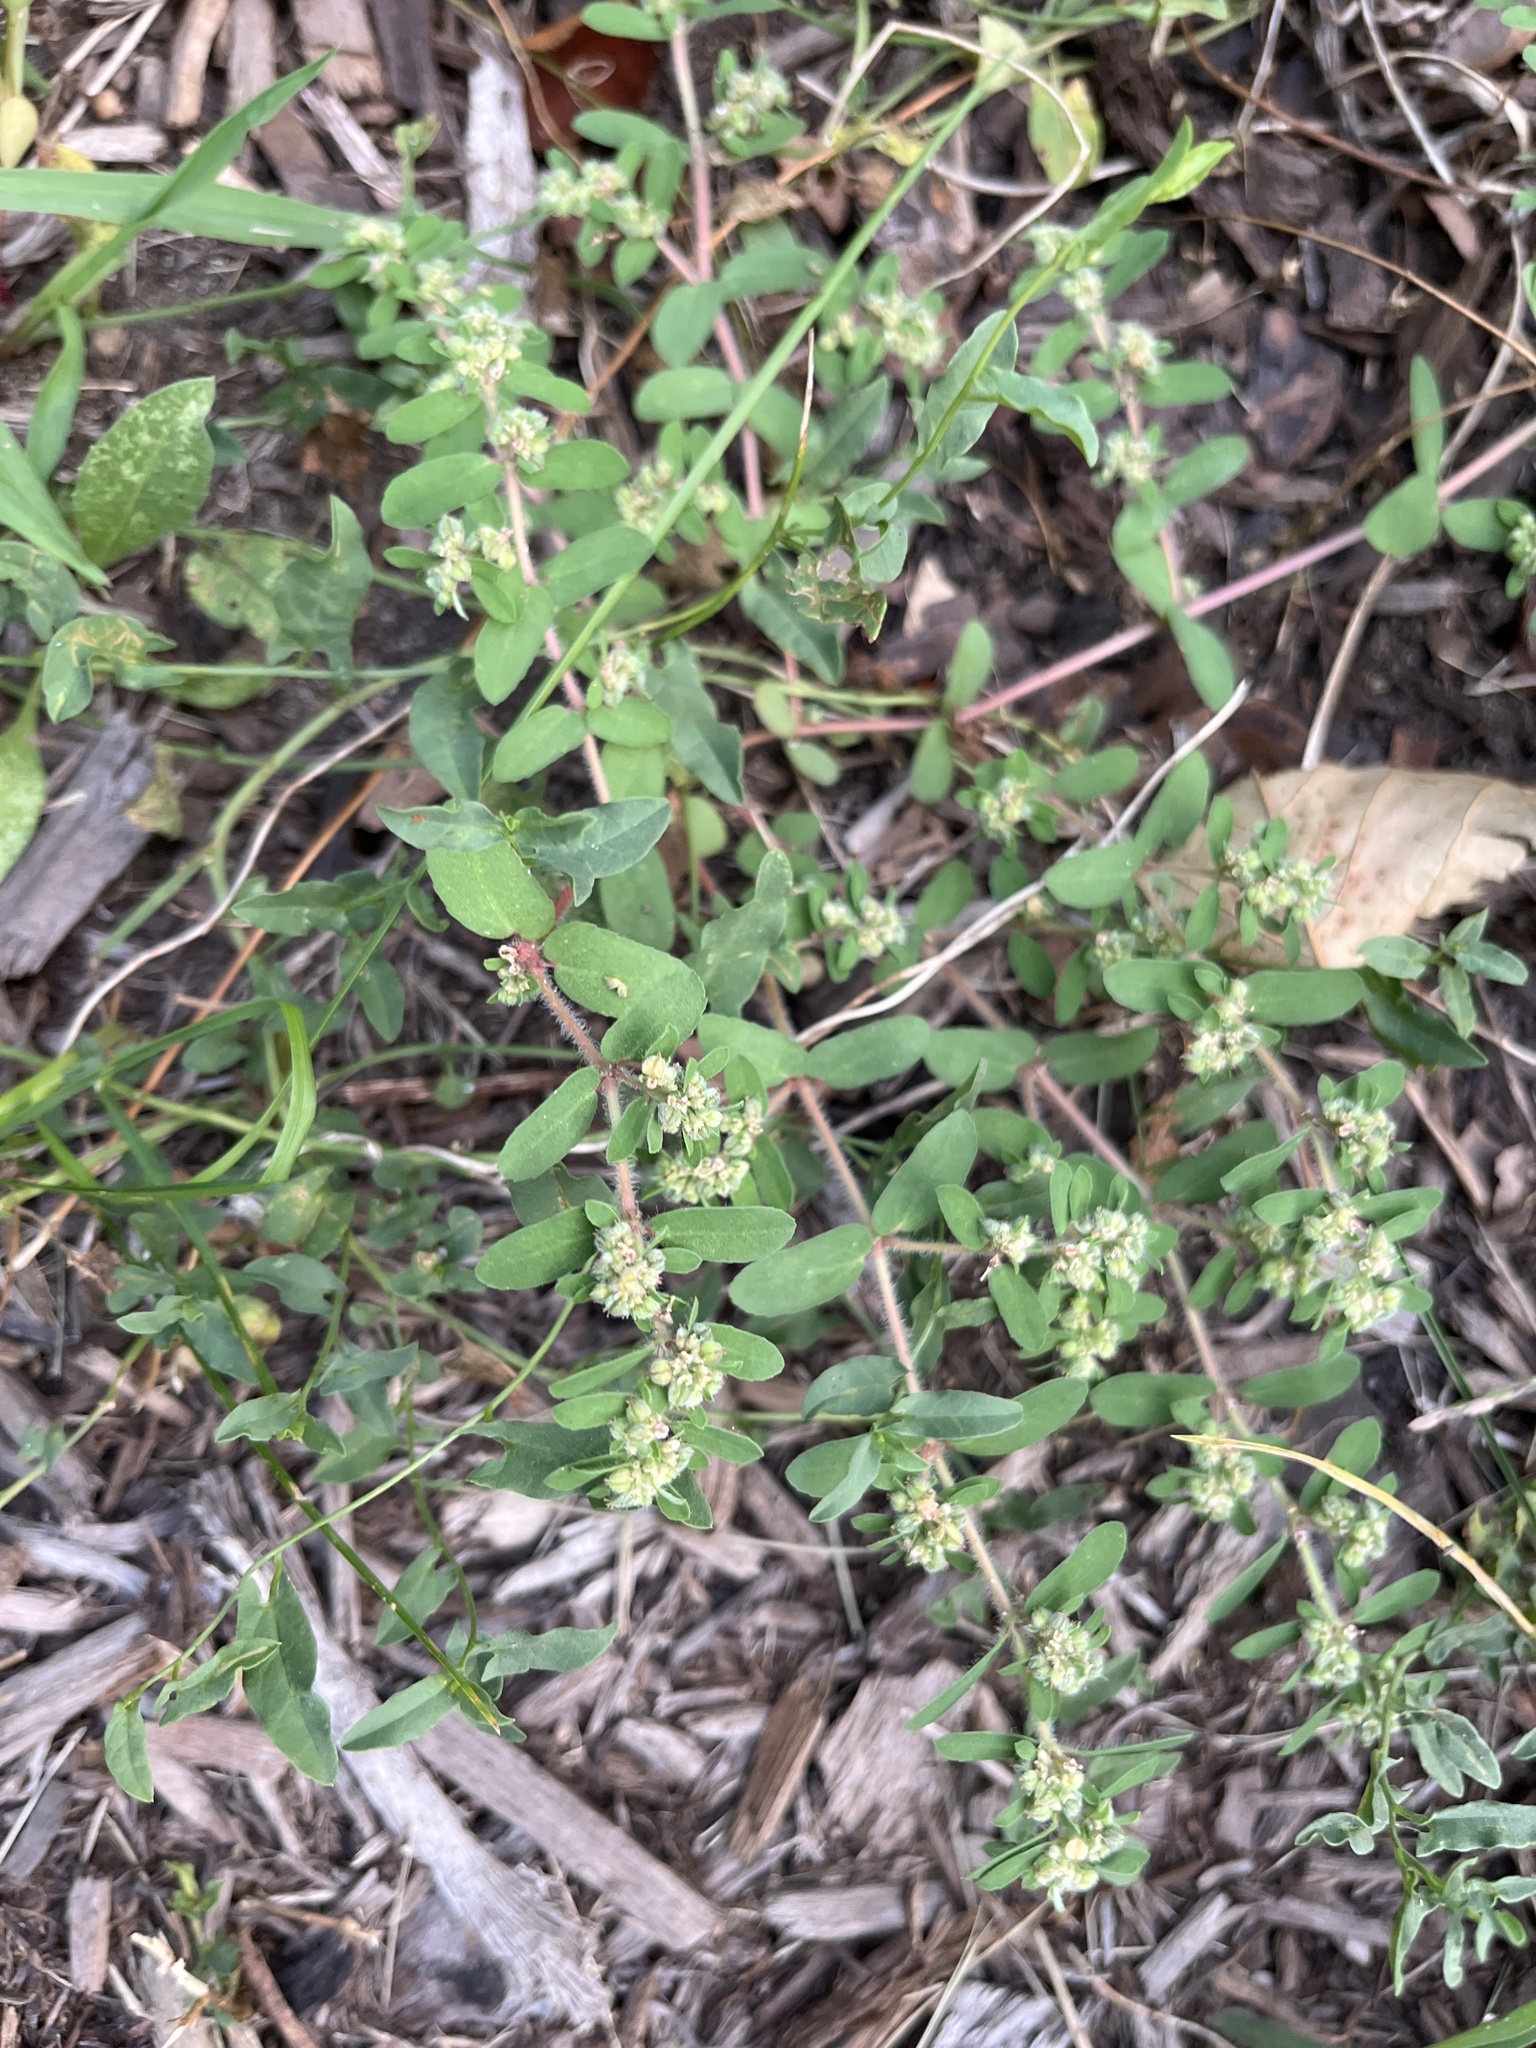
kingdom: Plantae
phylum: Tracheophyta
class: Magnoliopsida
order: Malpighiales
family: Euphorbiaceae
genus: Euphorbia
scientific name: Euphorbia maculata
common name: Spotted spurge
